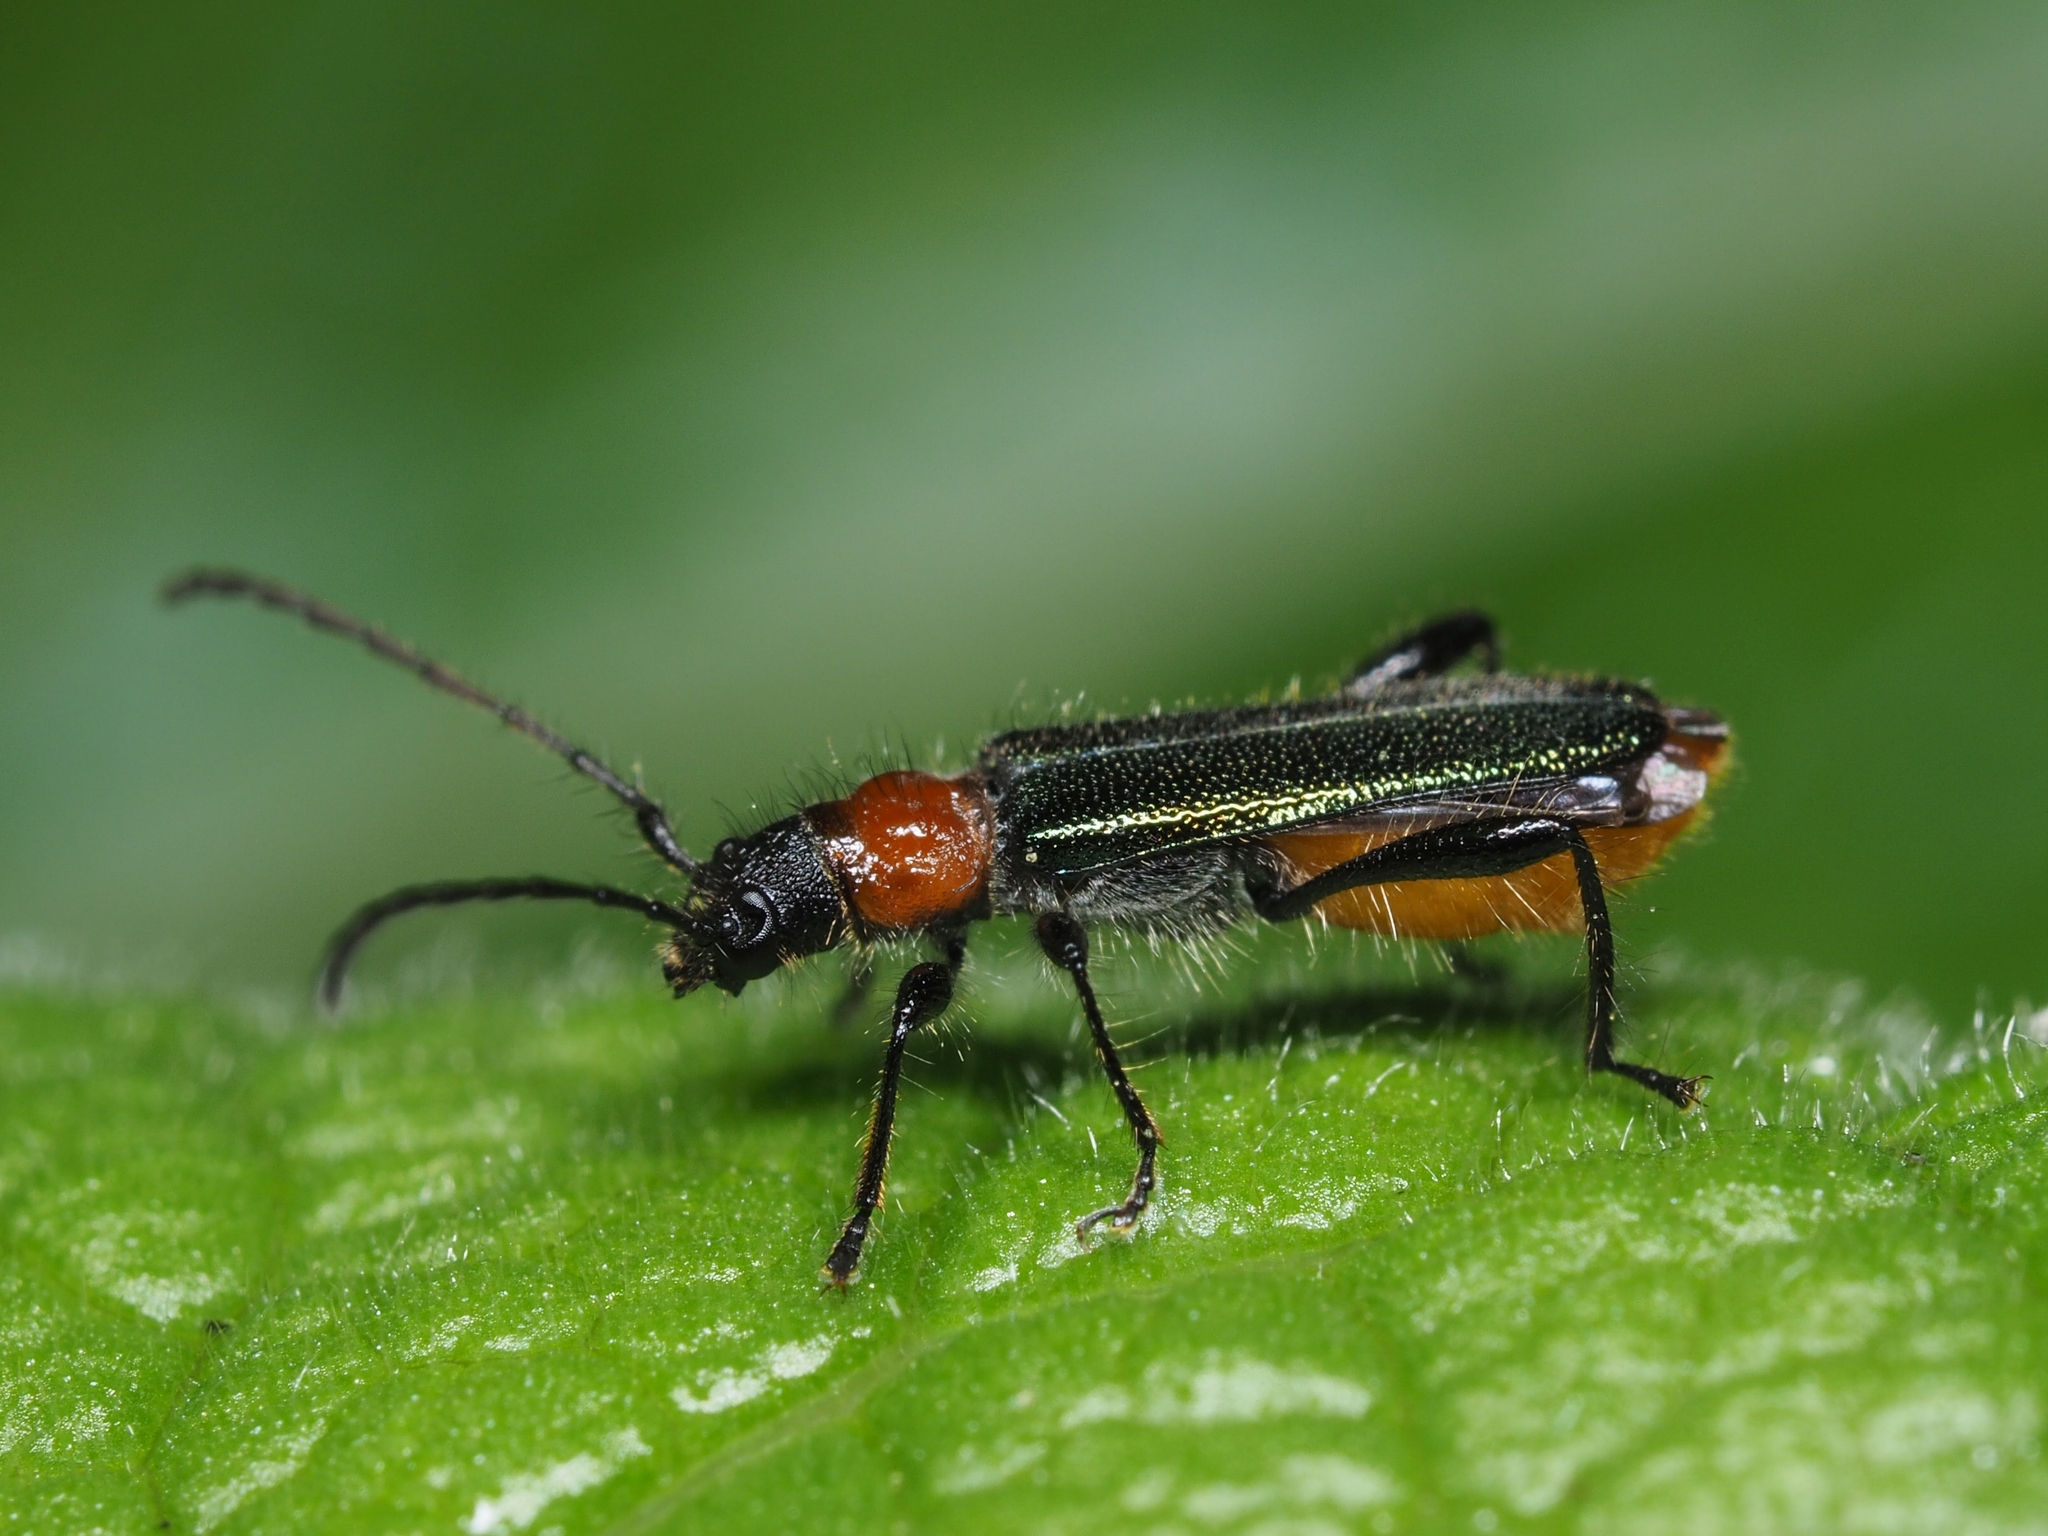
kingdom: Animalia
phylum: Arthropoda
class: Insecta
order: Coleoptera
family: Cerambycidae
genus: Callimus
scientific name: Callimus abdominale
